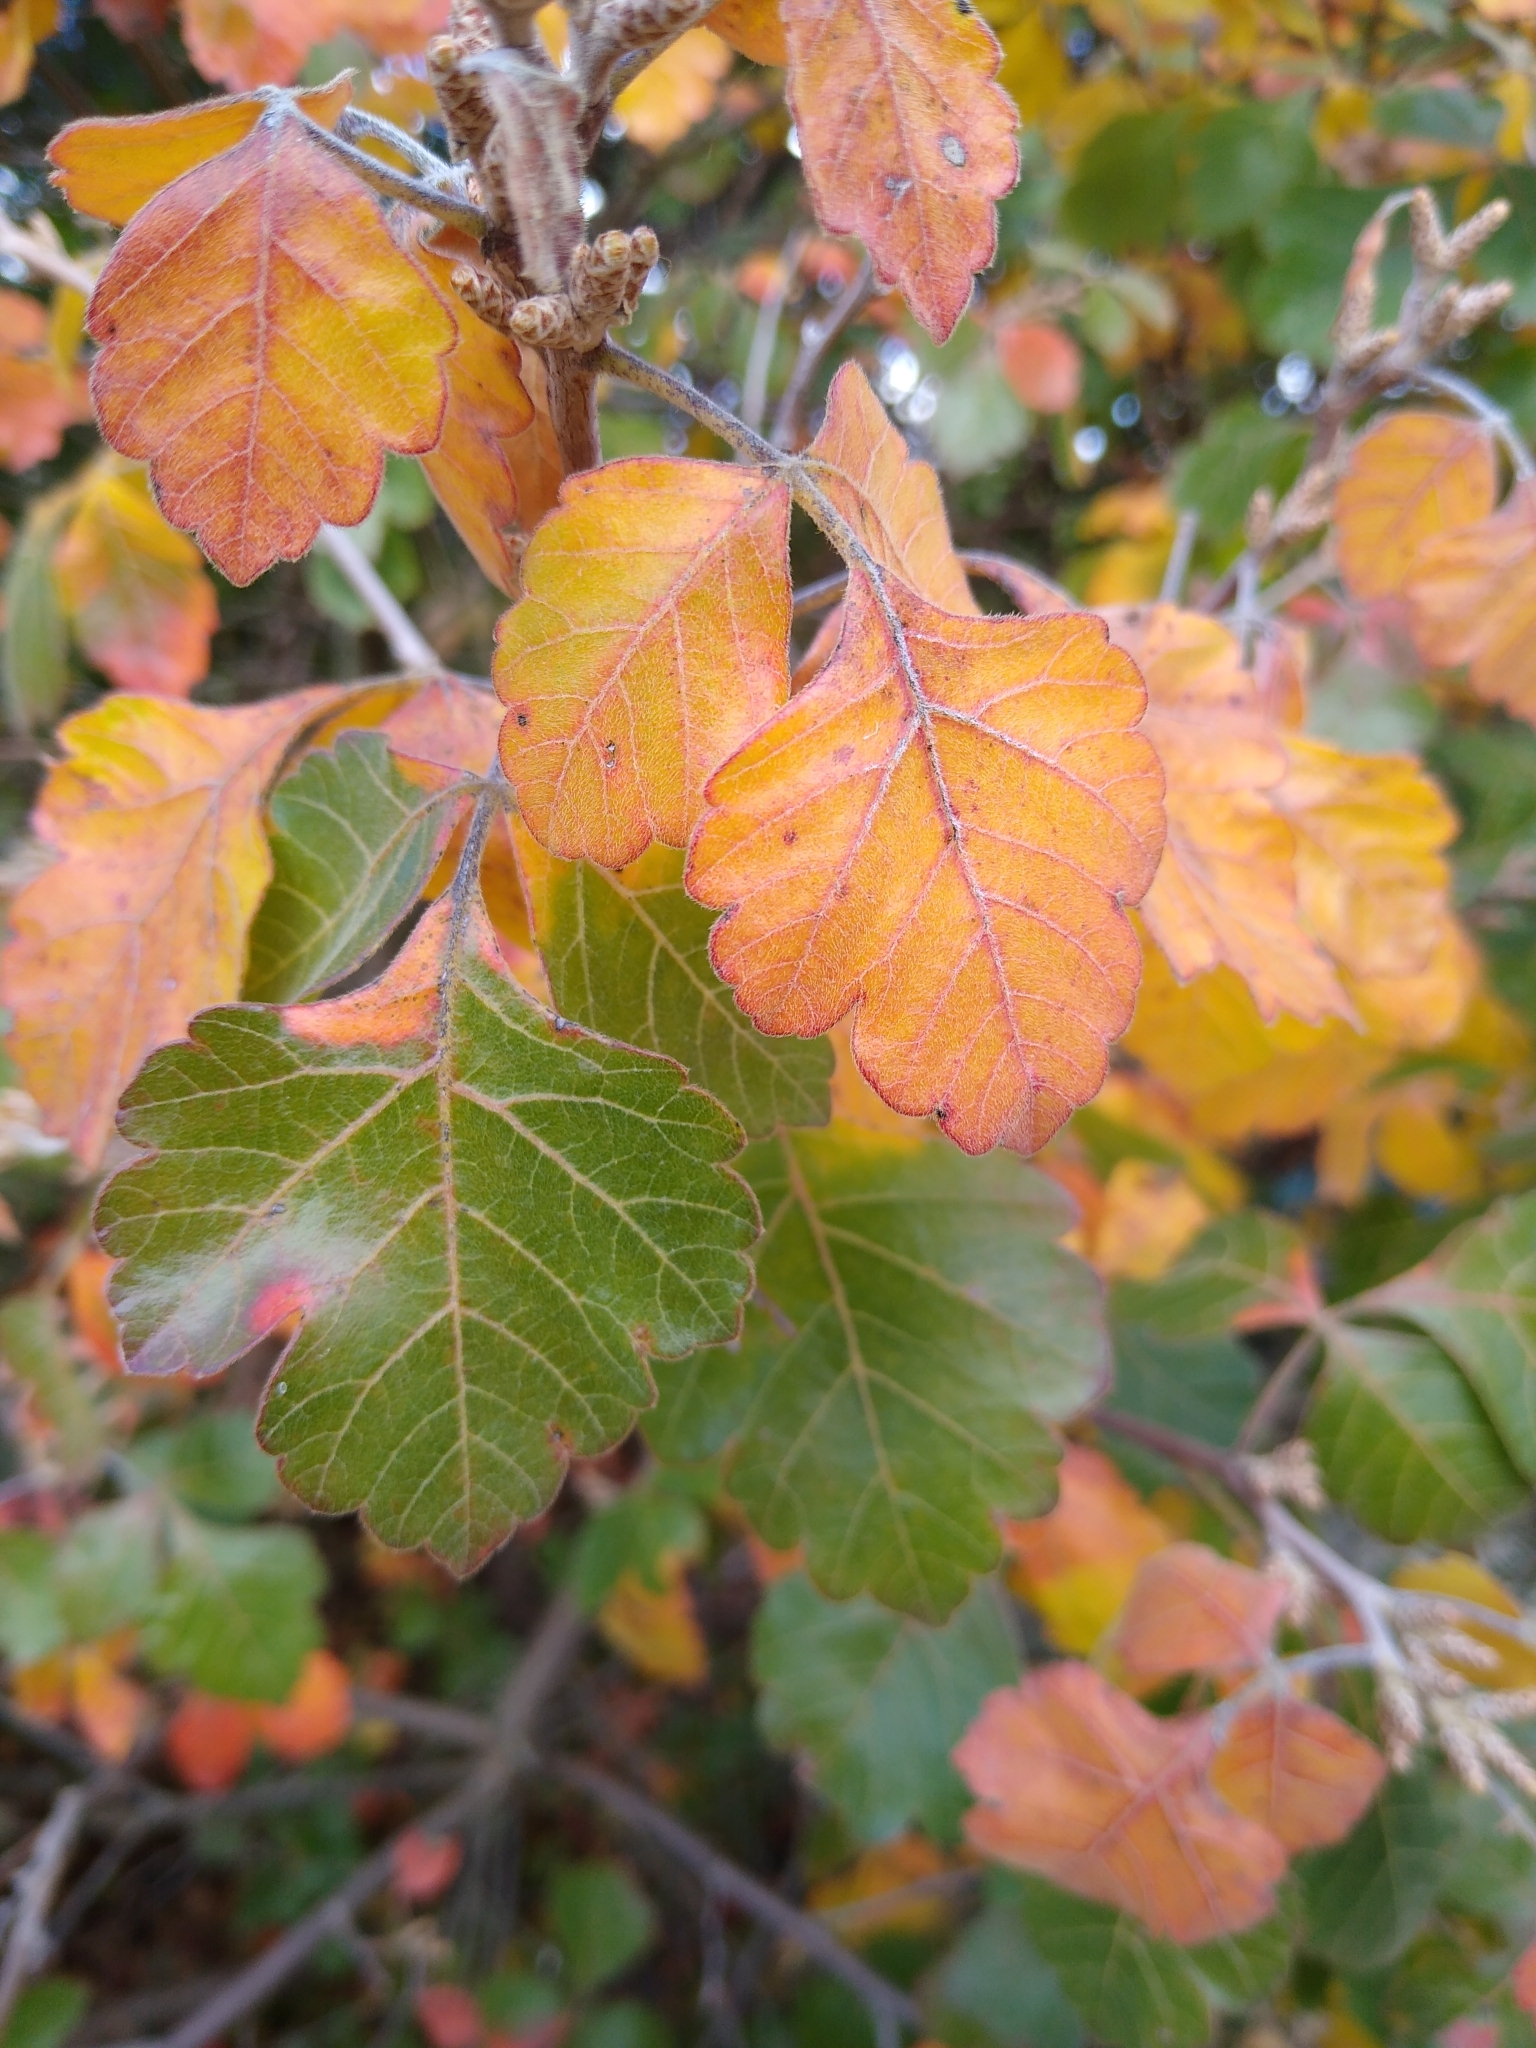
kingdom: Plantae
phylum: Tracheophyta
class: Magnoliopsida
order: Sapindales
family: Anacardiaceae
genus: Rhus
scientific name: Rhus aromatica
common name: Aromatic sumac
